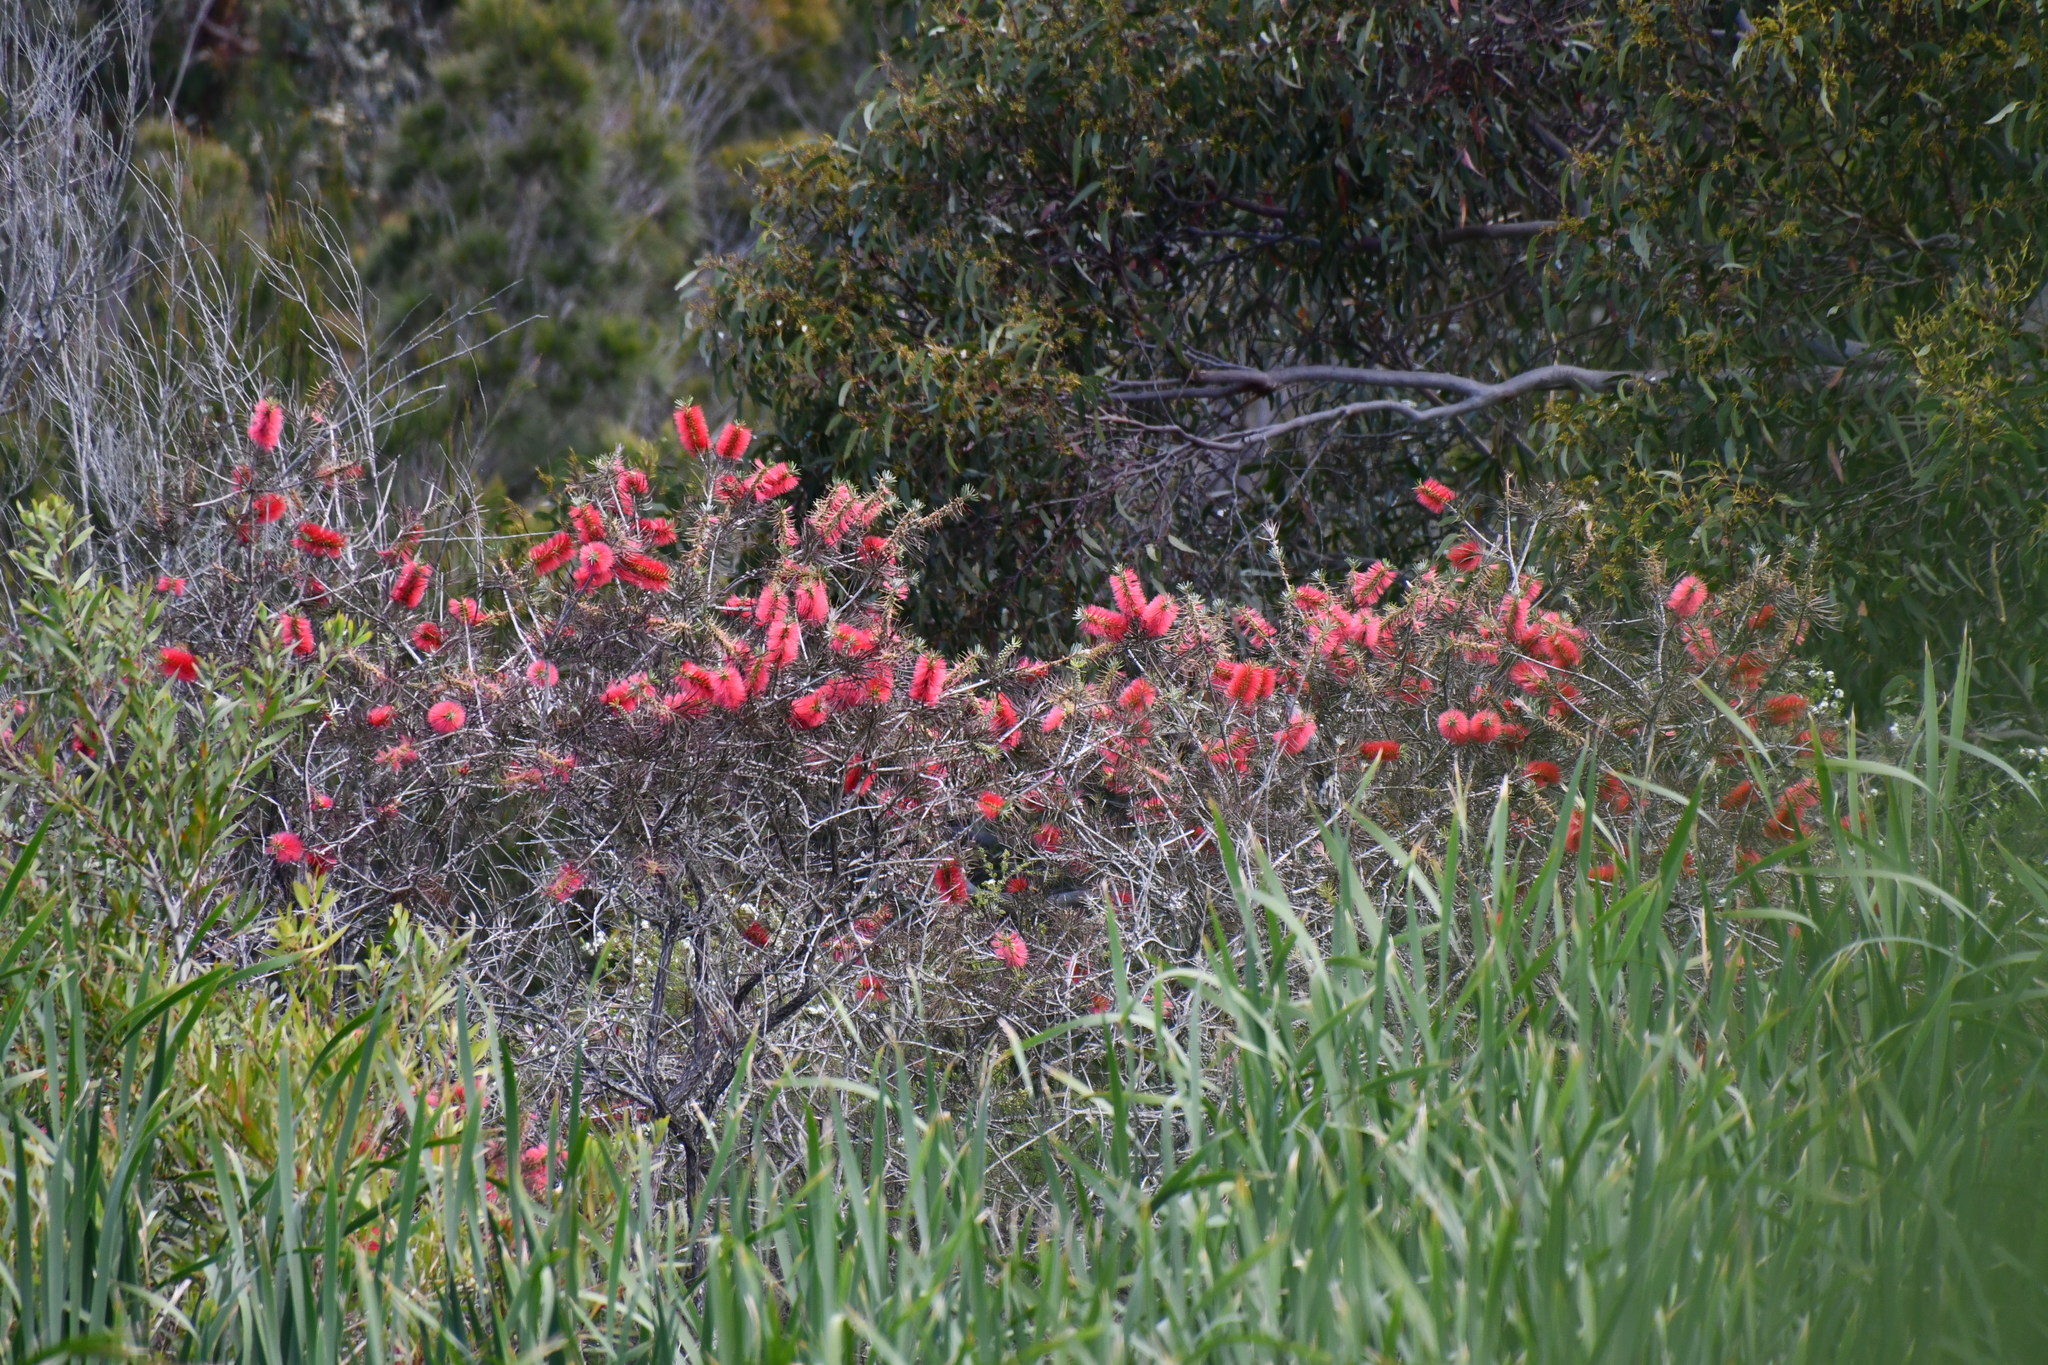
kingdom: Plantae
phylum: Tracheophyta
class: Magnoliopsida
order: Myrtales
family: Myrtaceae
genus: Callistemon
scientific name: Callistemon linearis
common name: Narrow-leaf bottlebrush
